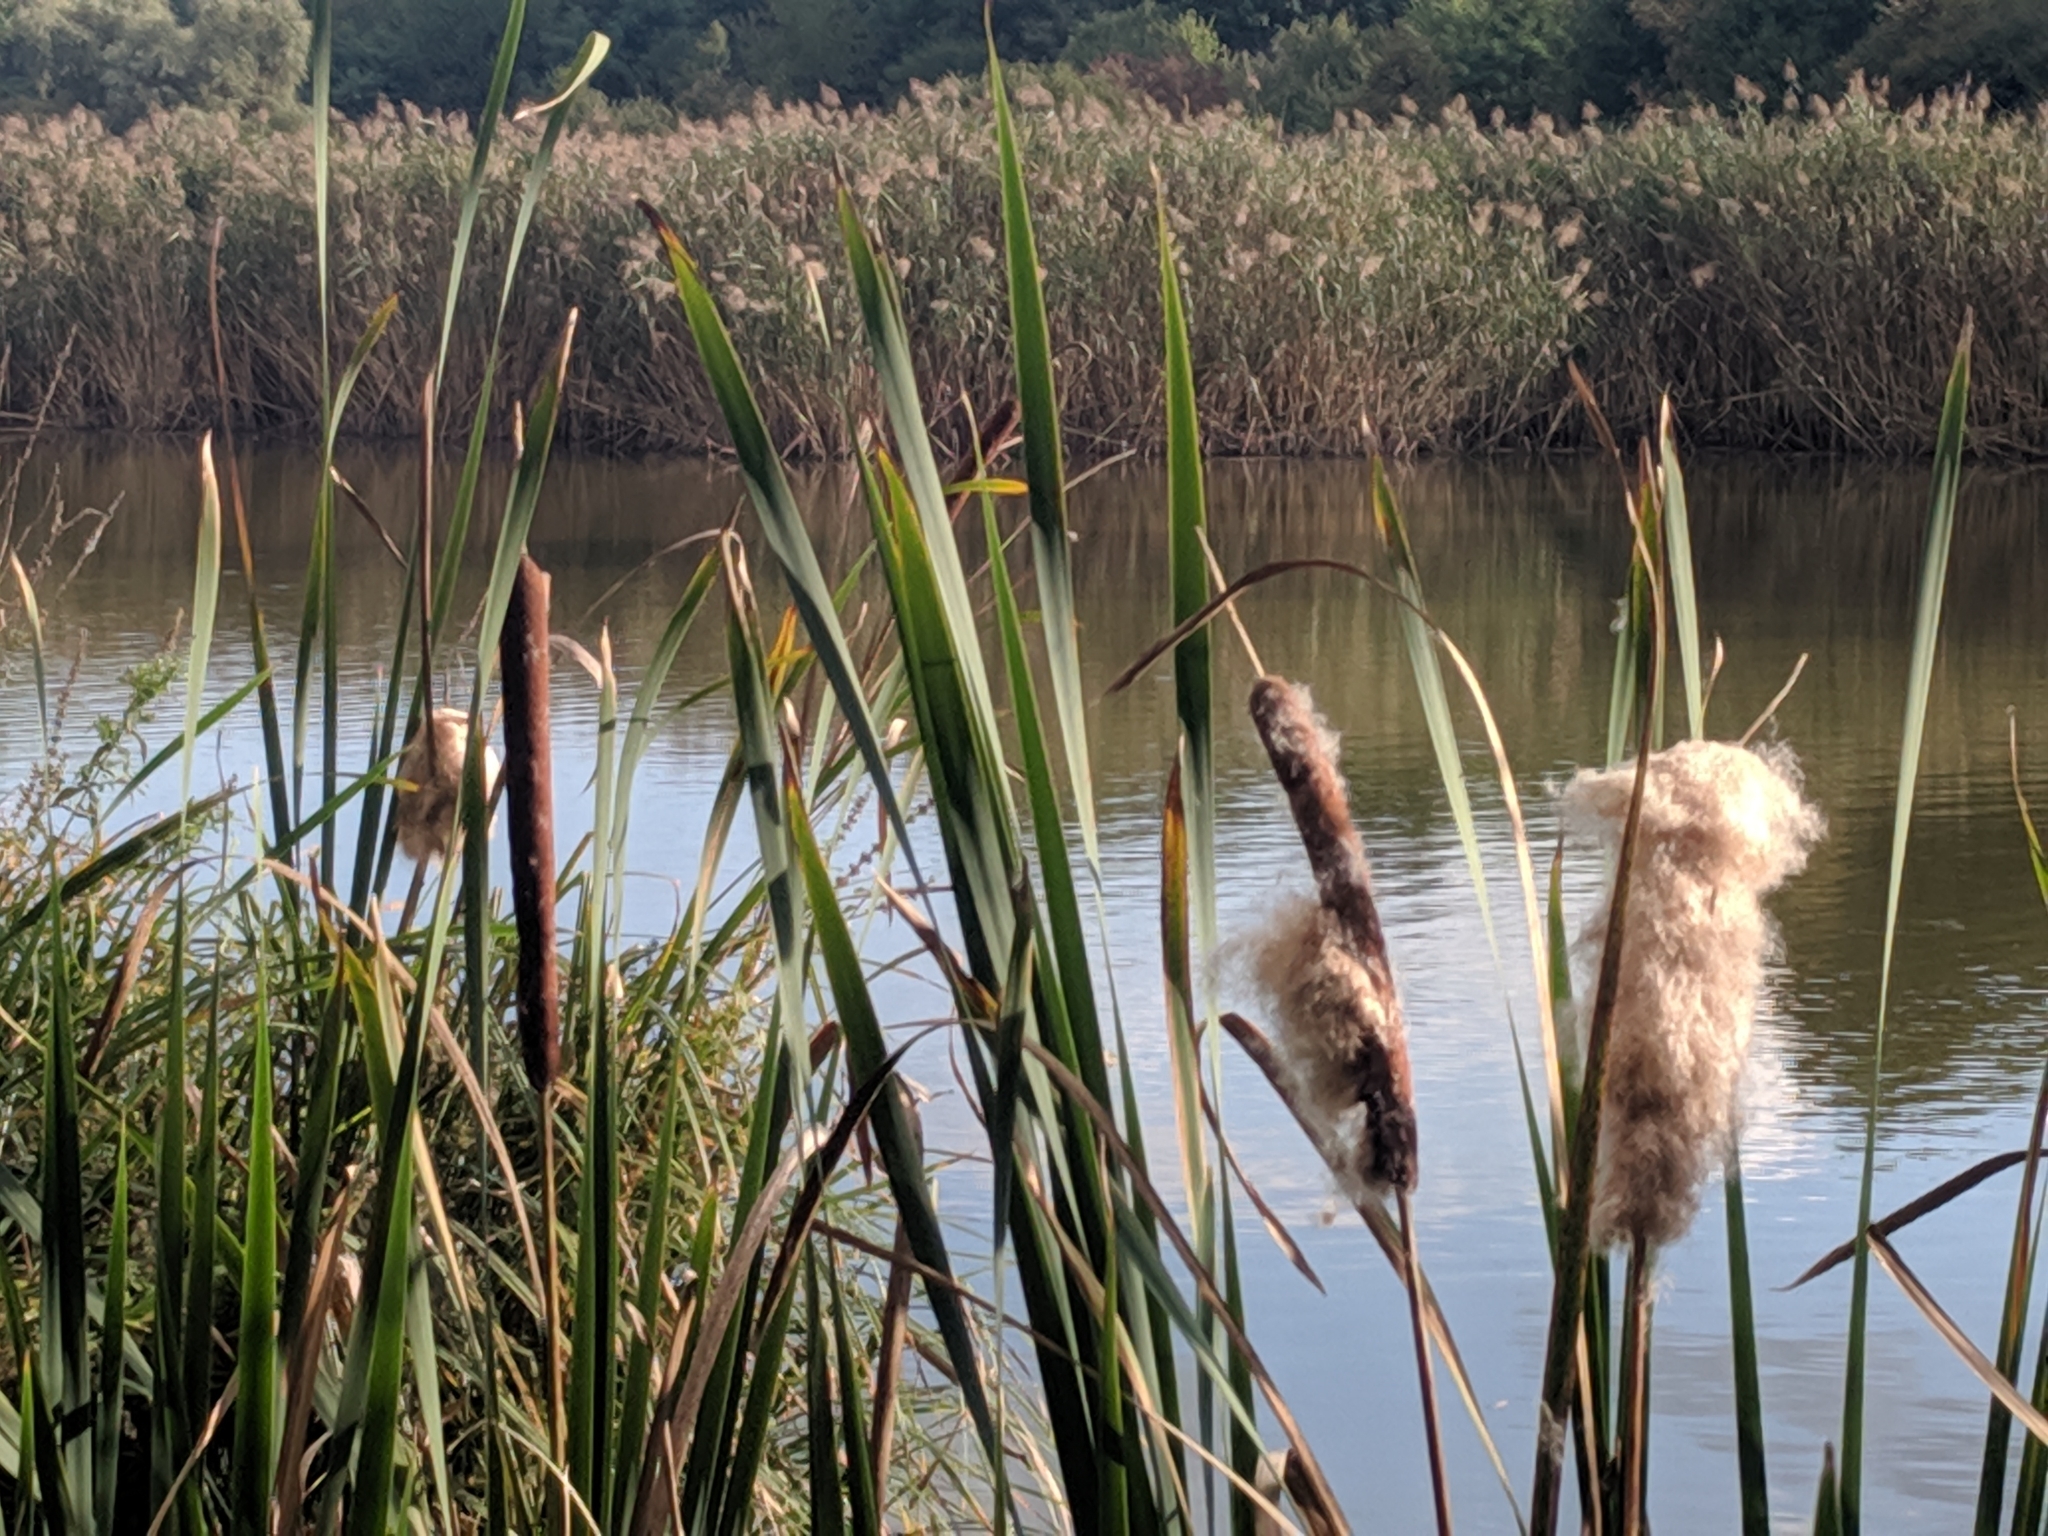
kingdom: Plantae
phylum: Tracheophyta
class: Liliopsida
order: Poales
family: Typhaceae
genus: Typha
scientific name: Typha latifolia
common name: Broadleaf cattail
